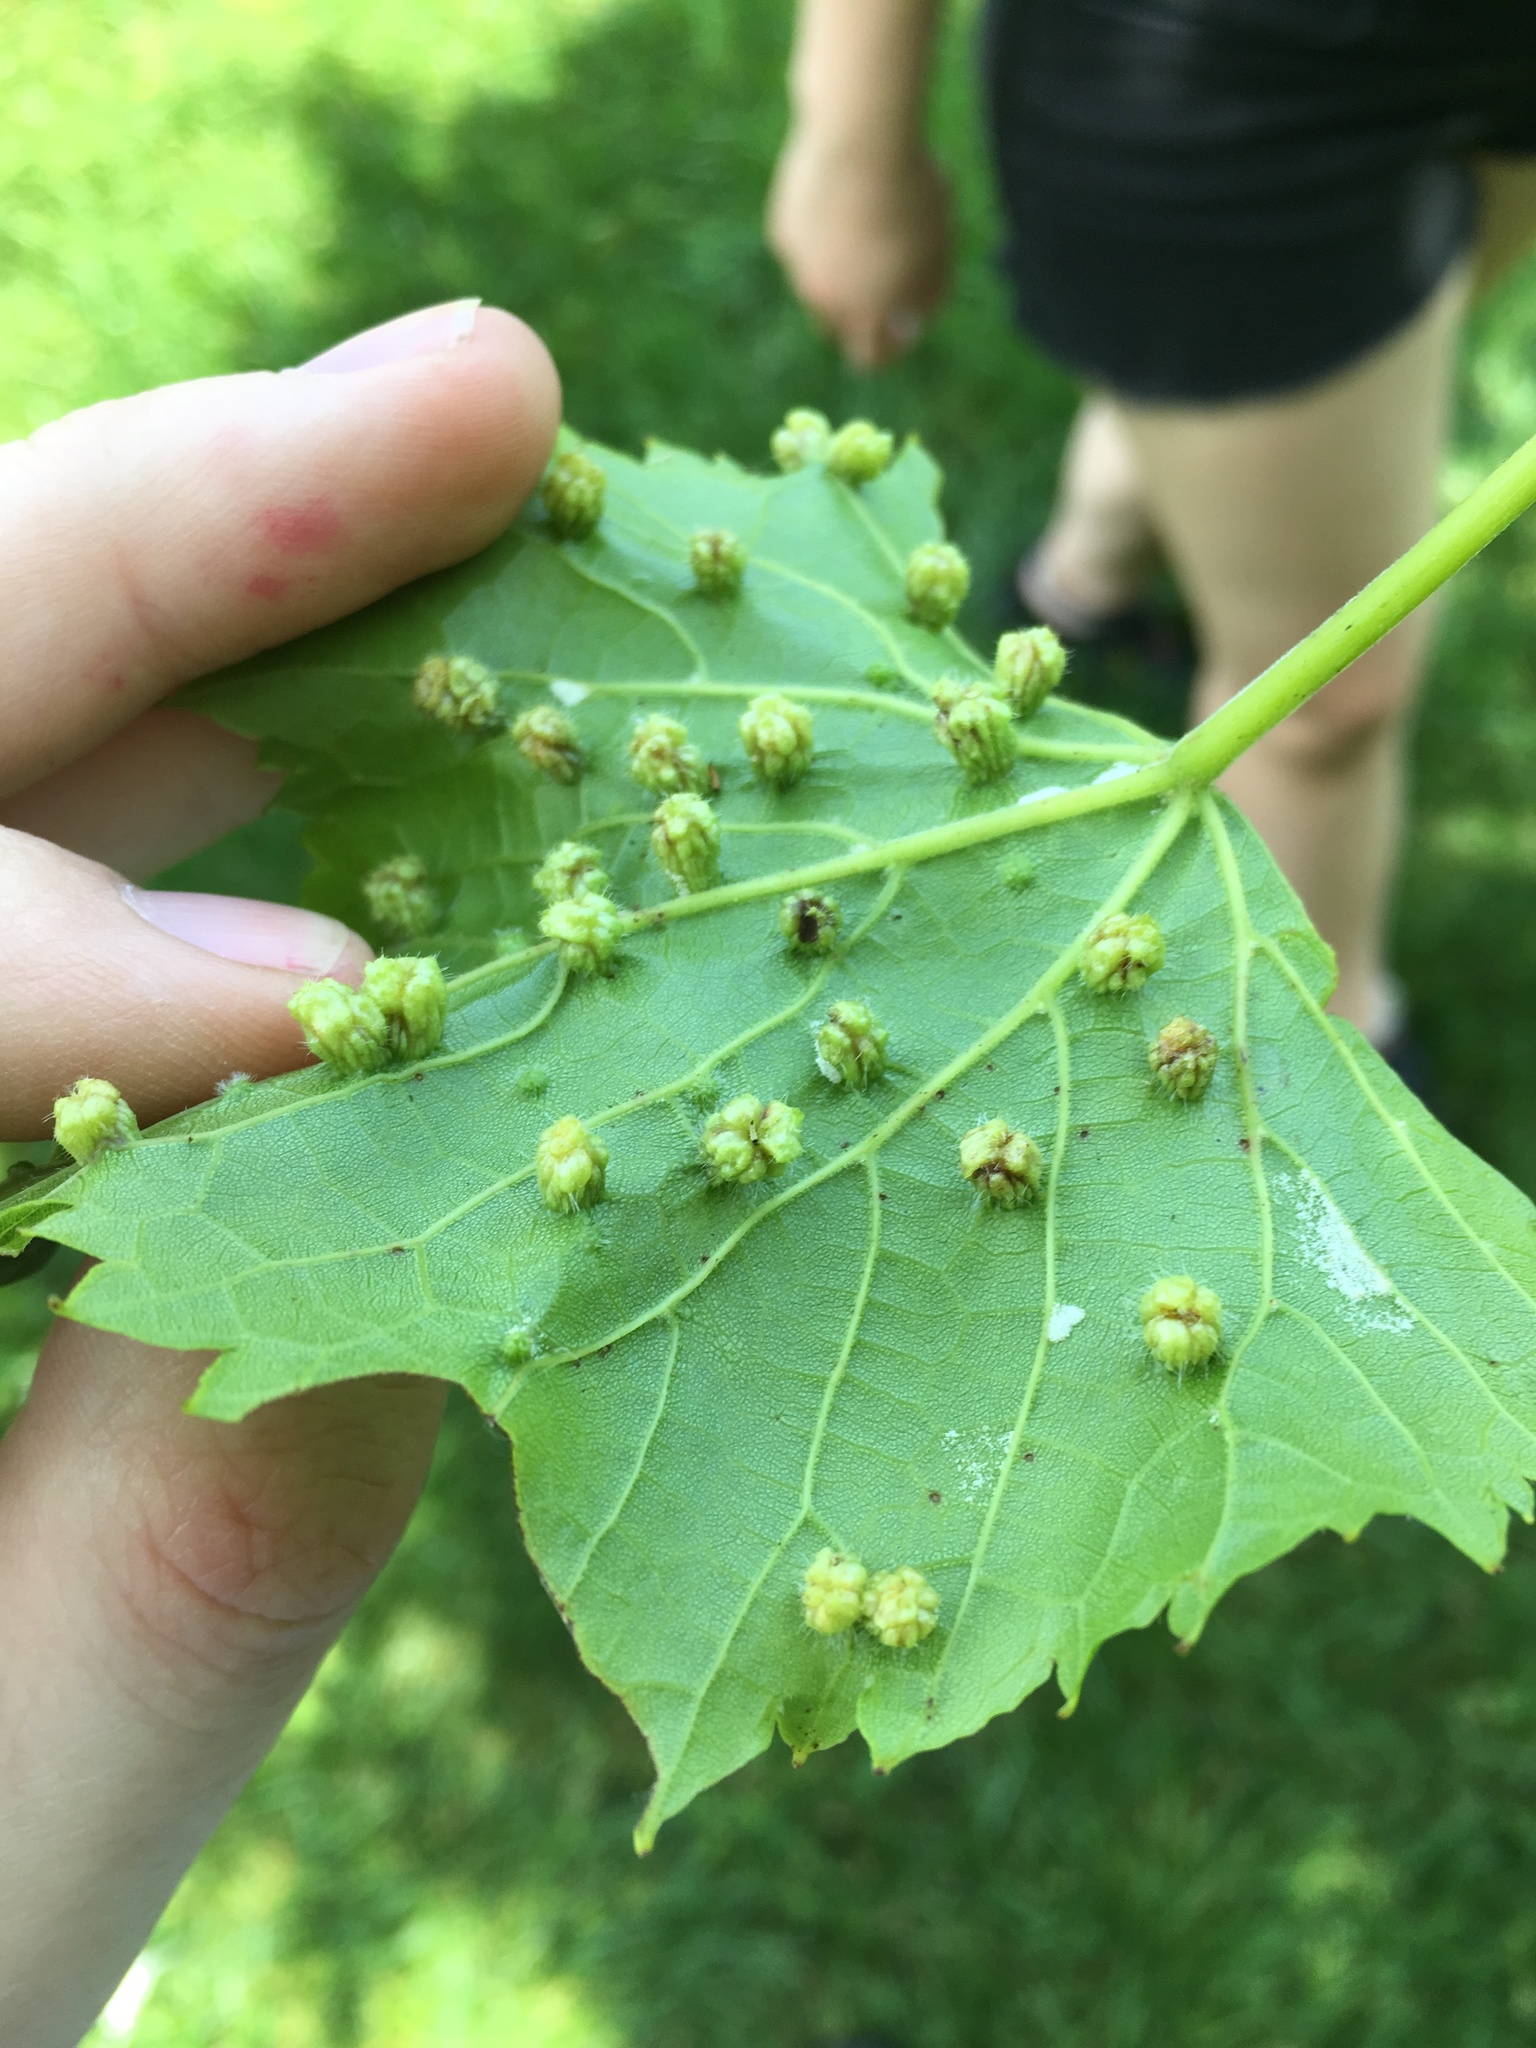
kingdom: Animalia
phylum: Arthropoda
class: Insecta
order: Hemiptera
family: Phylloxeridae
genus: Daktulosphaira
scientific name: Daktulosphaira vitifoliae
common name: Grape phylloxera
